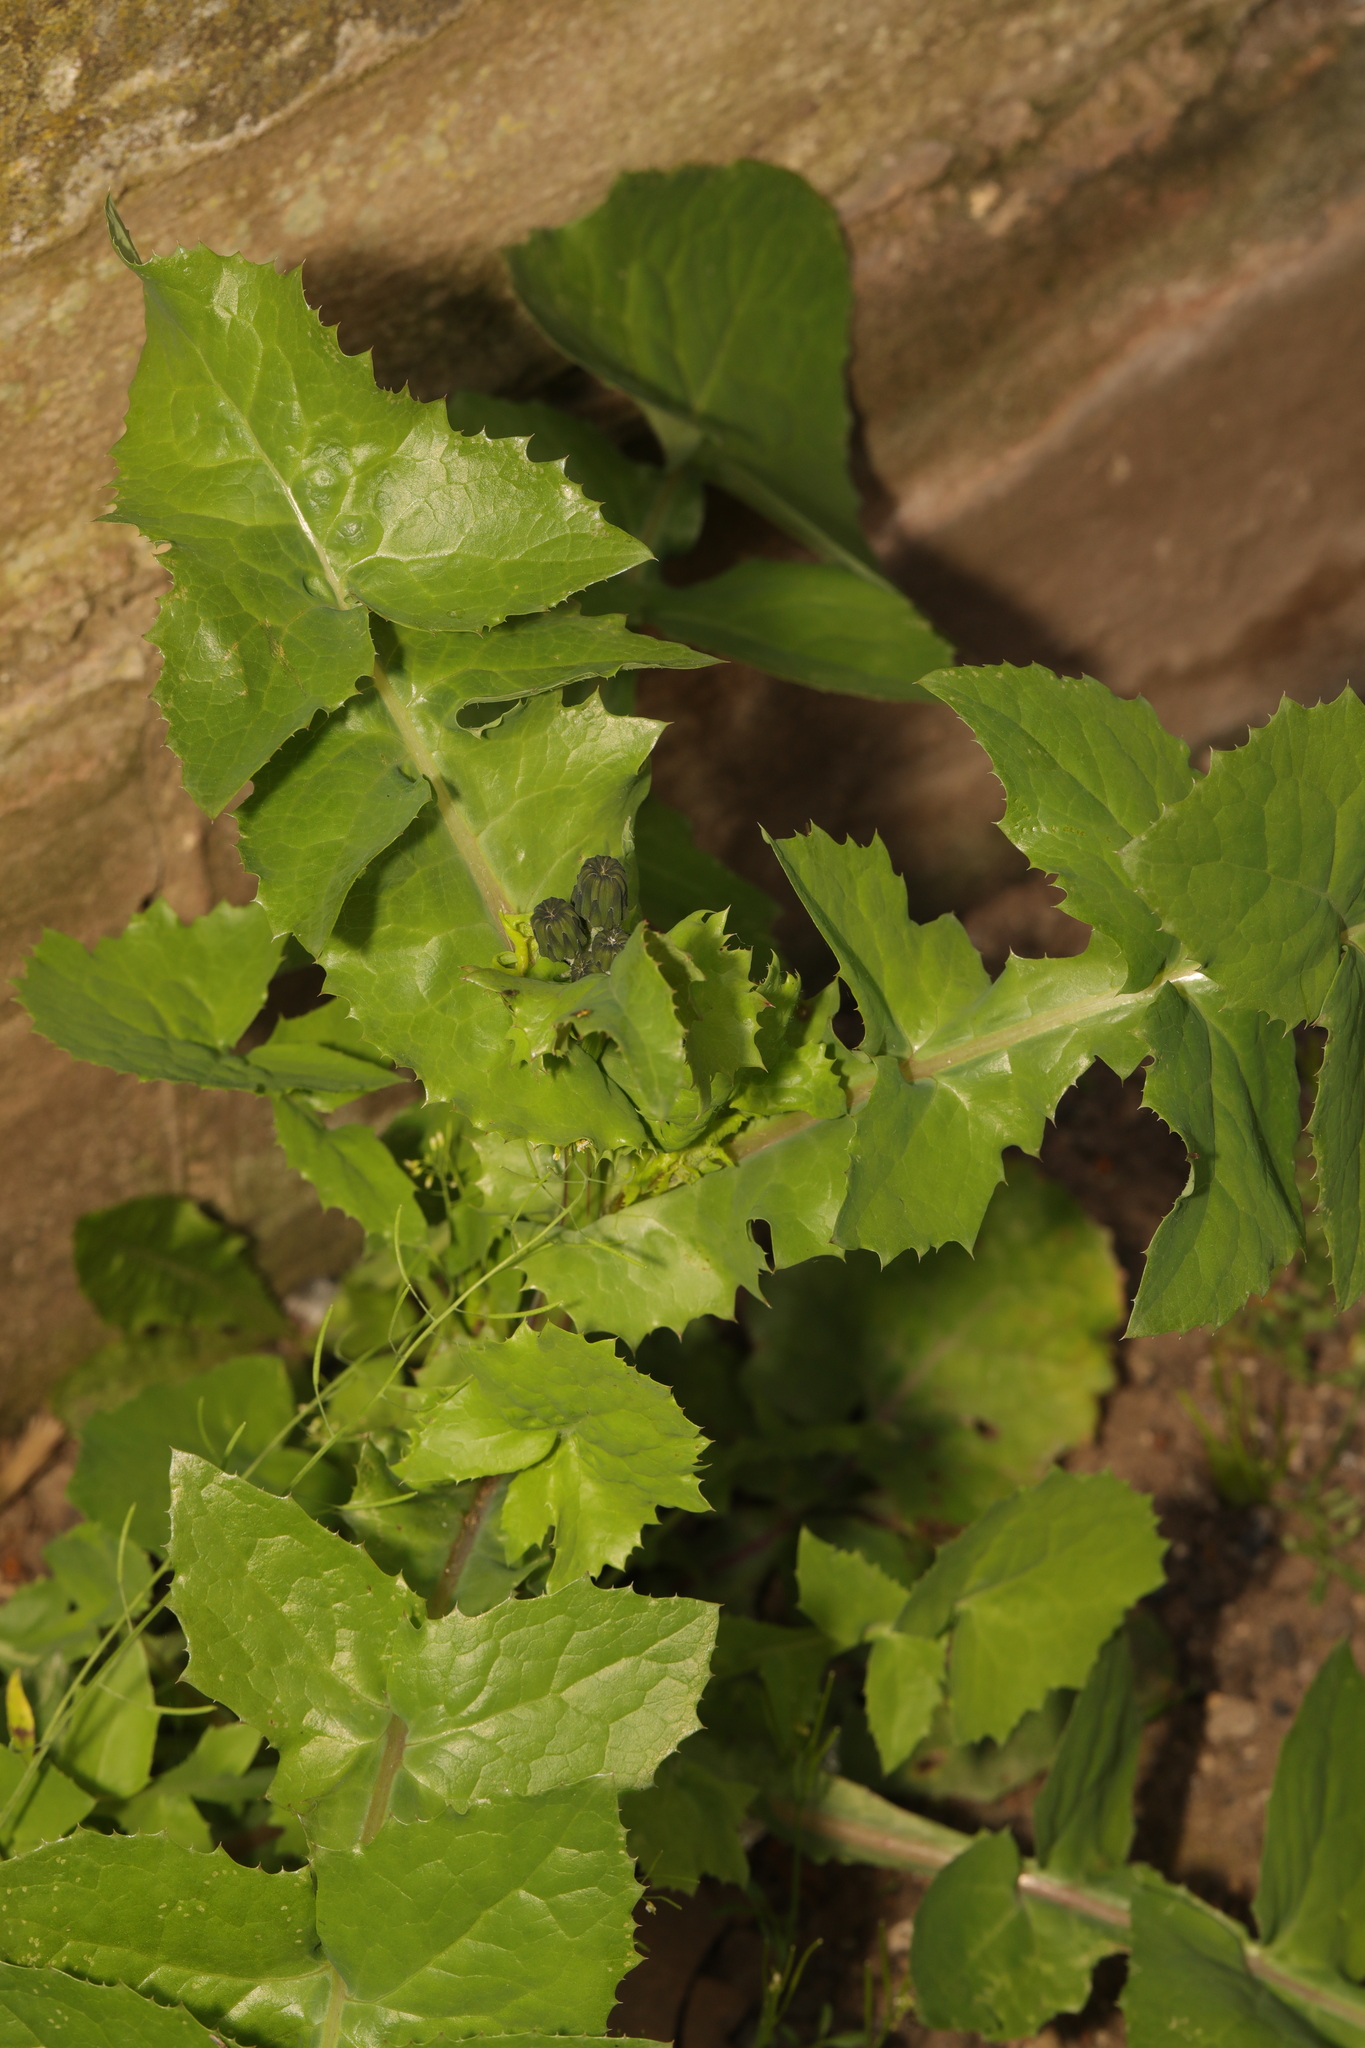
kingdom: Plantae
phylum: Tracheophyta
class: Magnoliopsida
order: Asterales
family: Asteraceae
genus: Sonchus
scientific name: Sonchus oleraceus
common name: Common sowthistle
